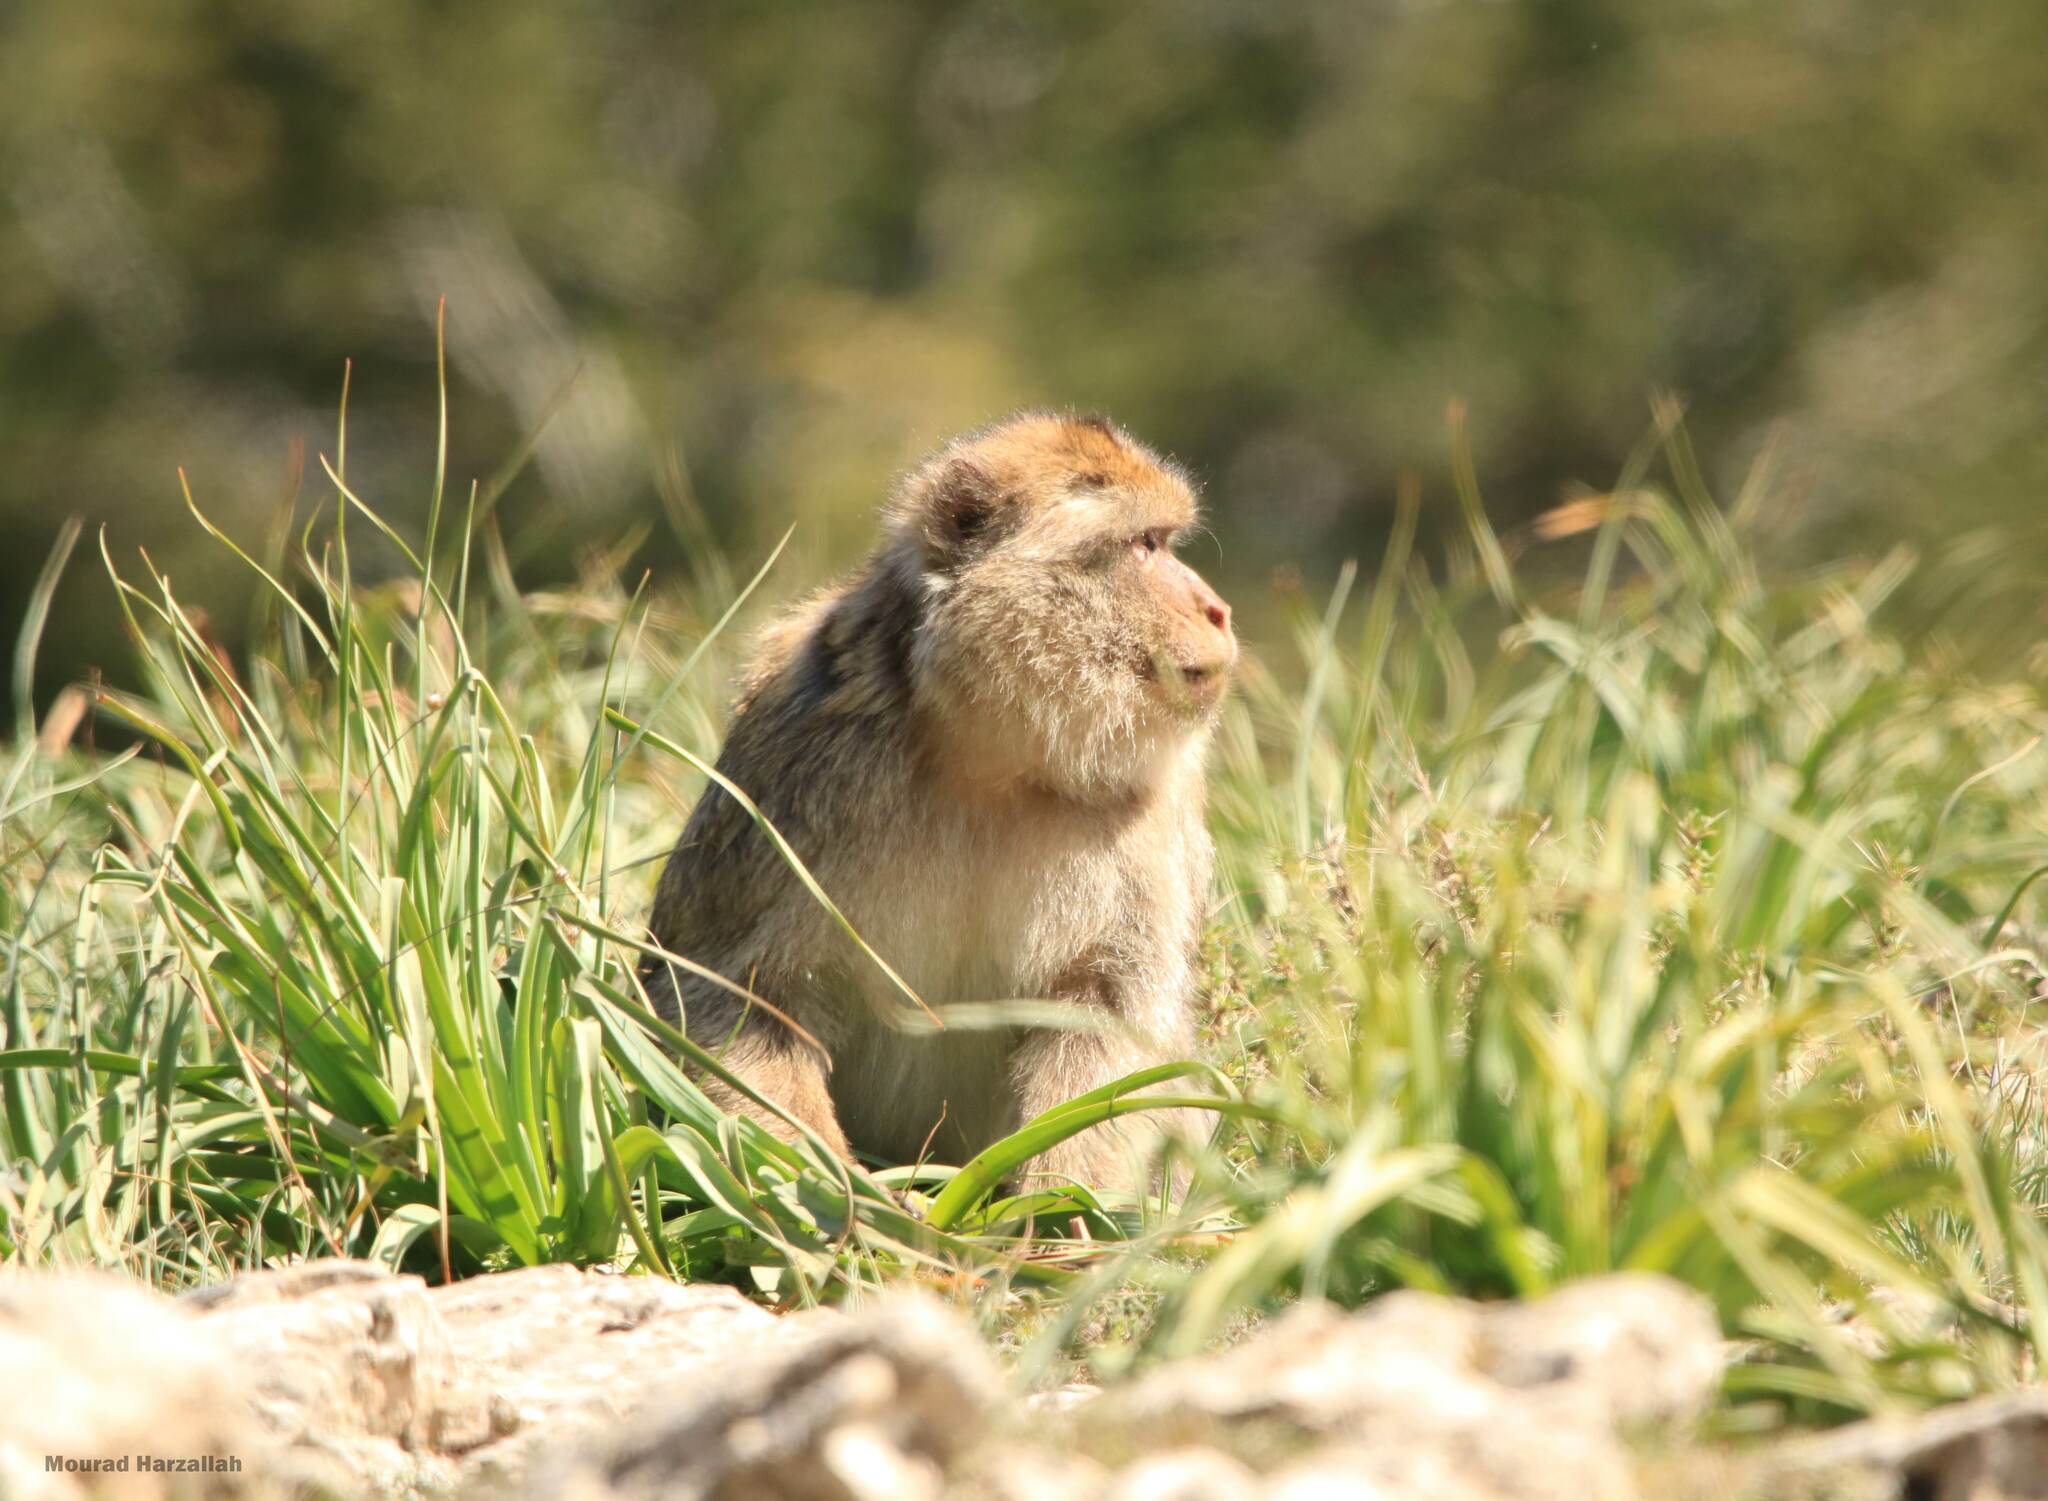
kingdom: Animalia
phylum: Chordata
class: Mammalia
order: Primates
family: Cercopithecidae
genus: Macaca
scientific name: Macaca sylvanus
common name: Barbary macaque
